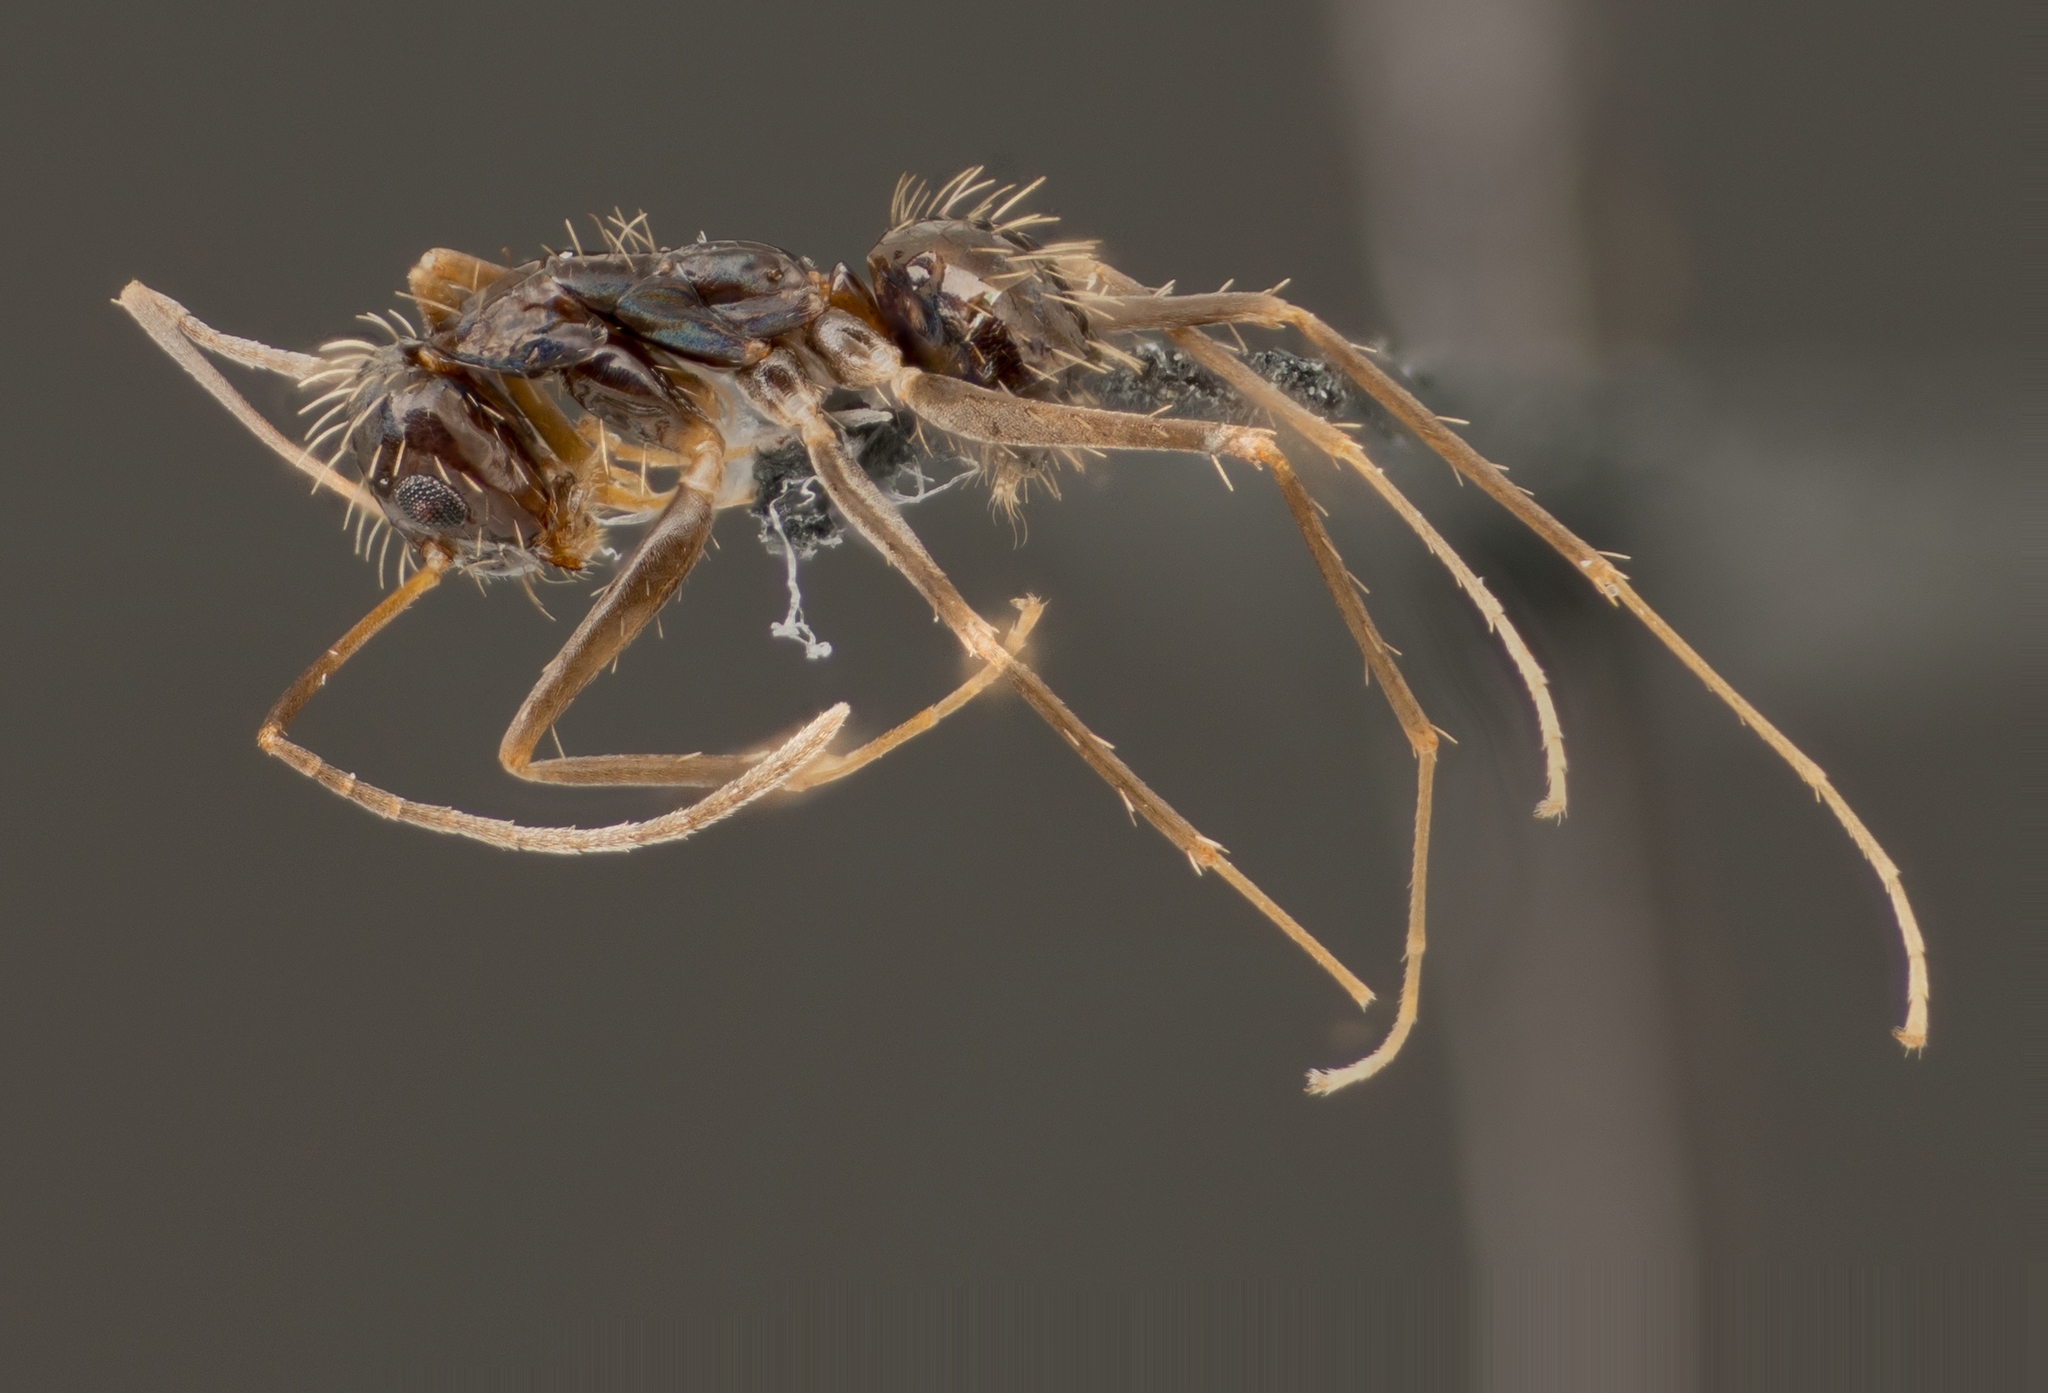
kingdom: Animalia
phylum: Arthropoda
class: Insecta
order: Hymenoptera
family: Formicidae
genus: Paratrechina
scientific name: Paratrechina longicornis
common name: Longhorned crazy ant
